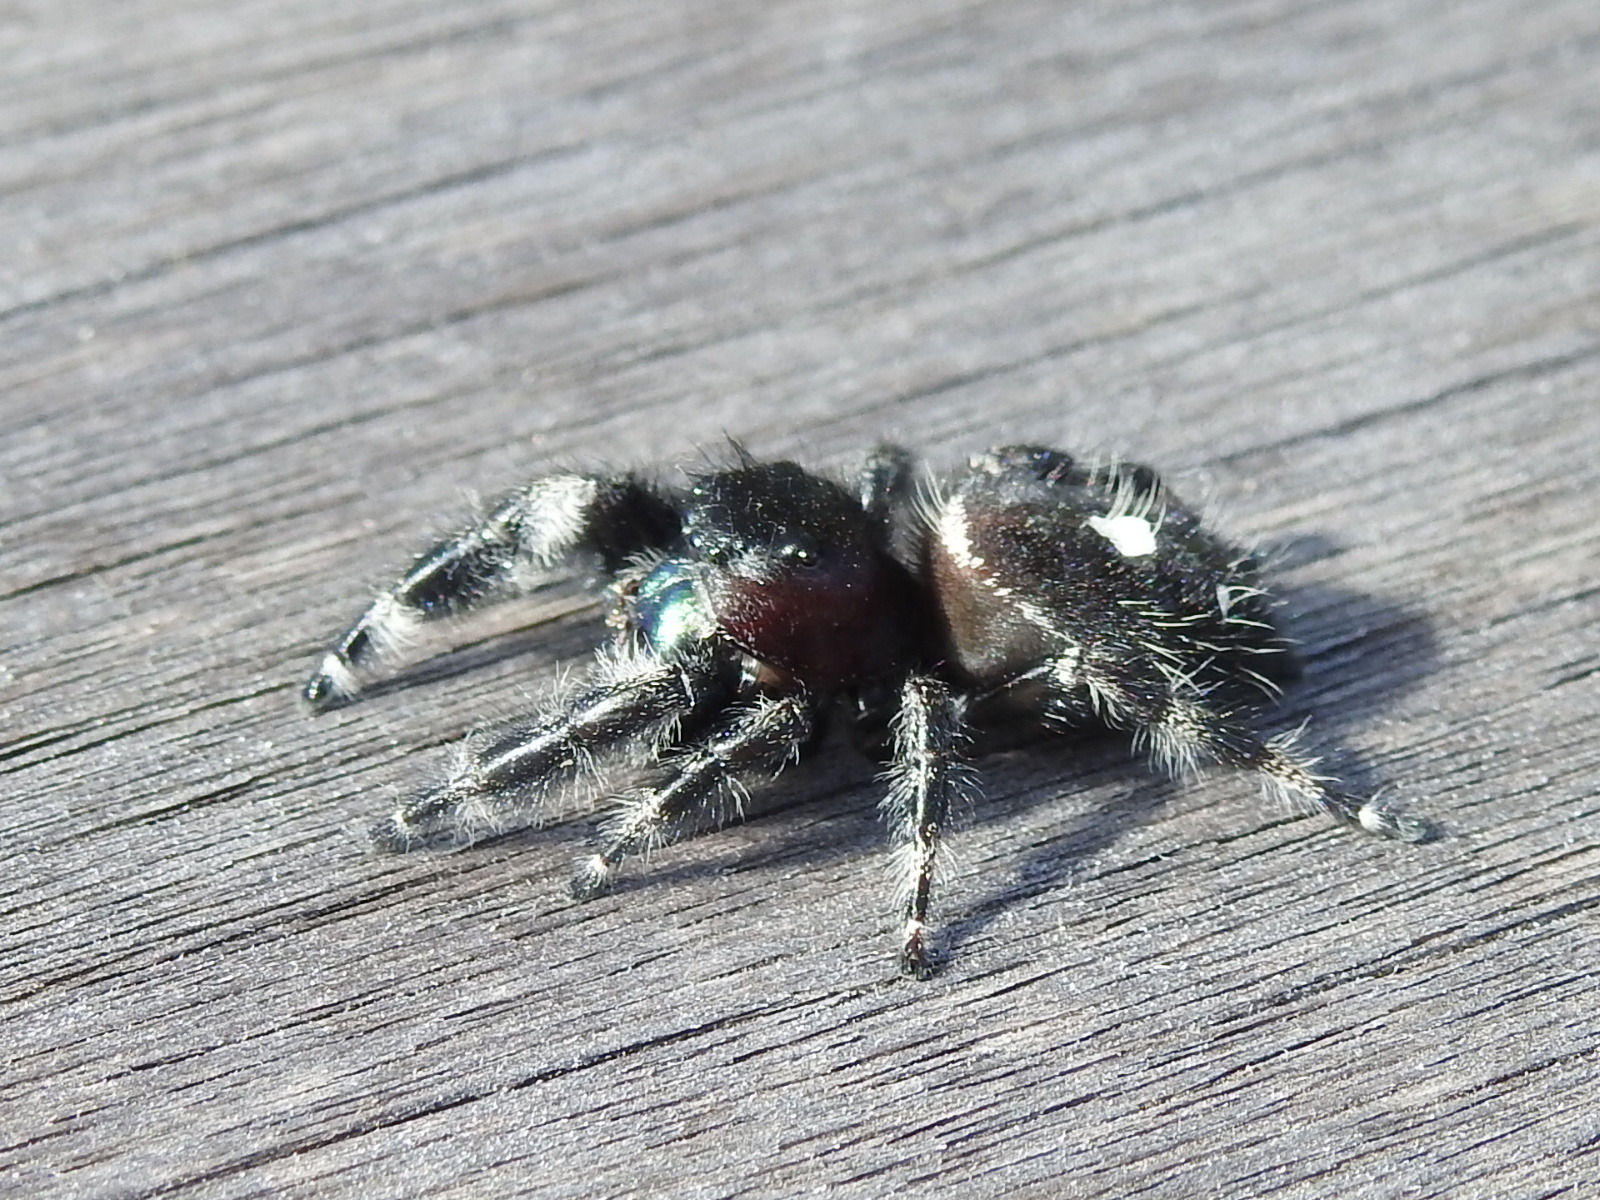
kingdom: Animalia
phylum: Arthropoda
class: Arachnida
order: Araneae
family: Salticidae
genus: Phidippus
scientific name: Phidippus audax
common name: Bold jumper
